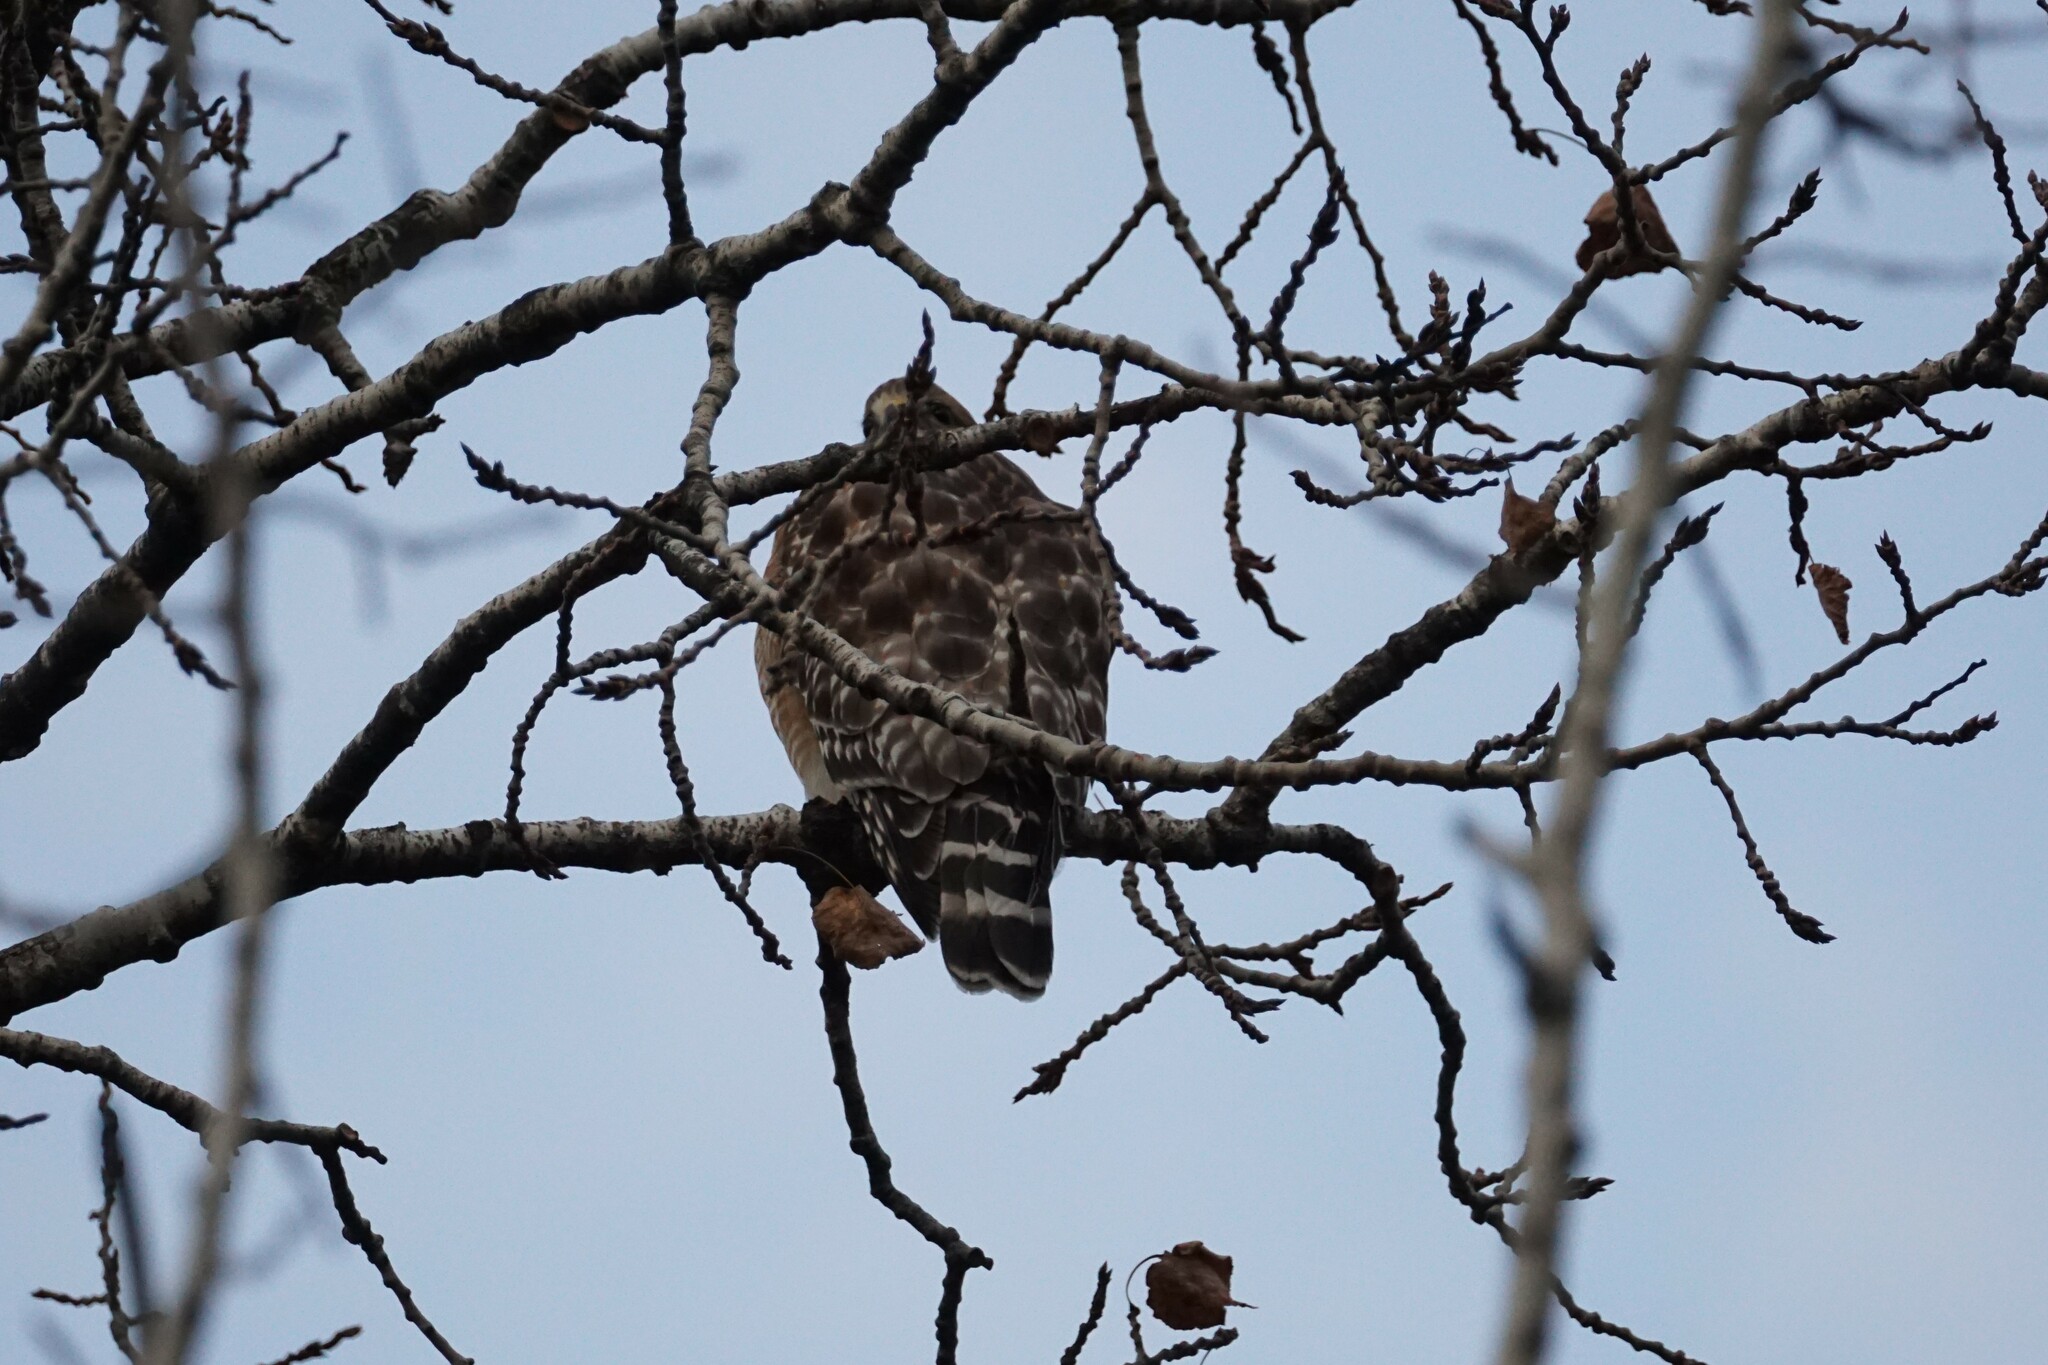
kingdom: Animalia
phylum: Chordata
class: Aves
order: Accipitriformes
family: Accipitridae
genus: Buteo
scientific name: Buteo lineatus
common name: Red-shouldered hawk
